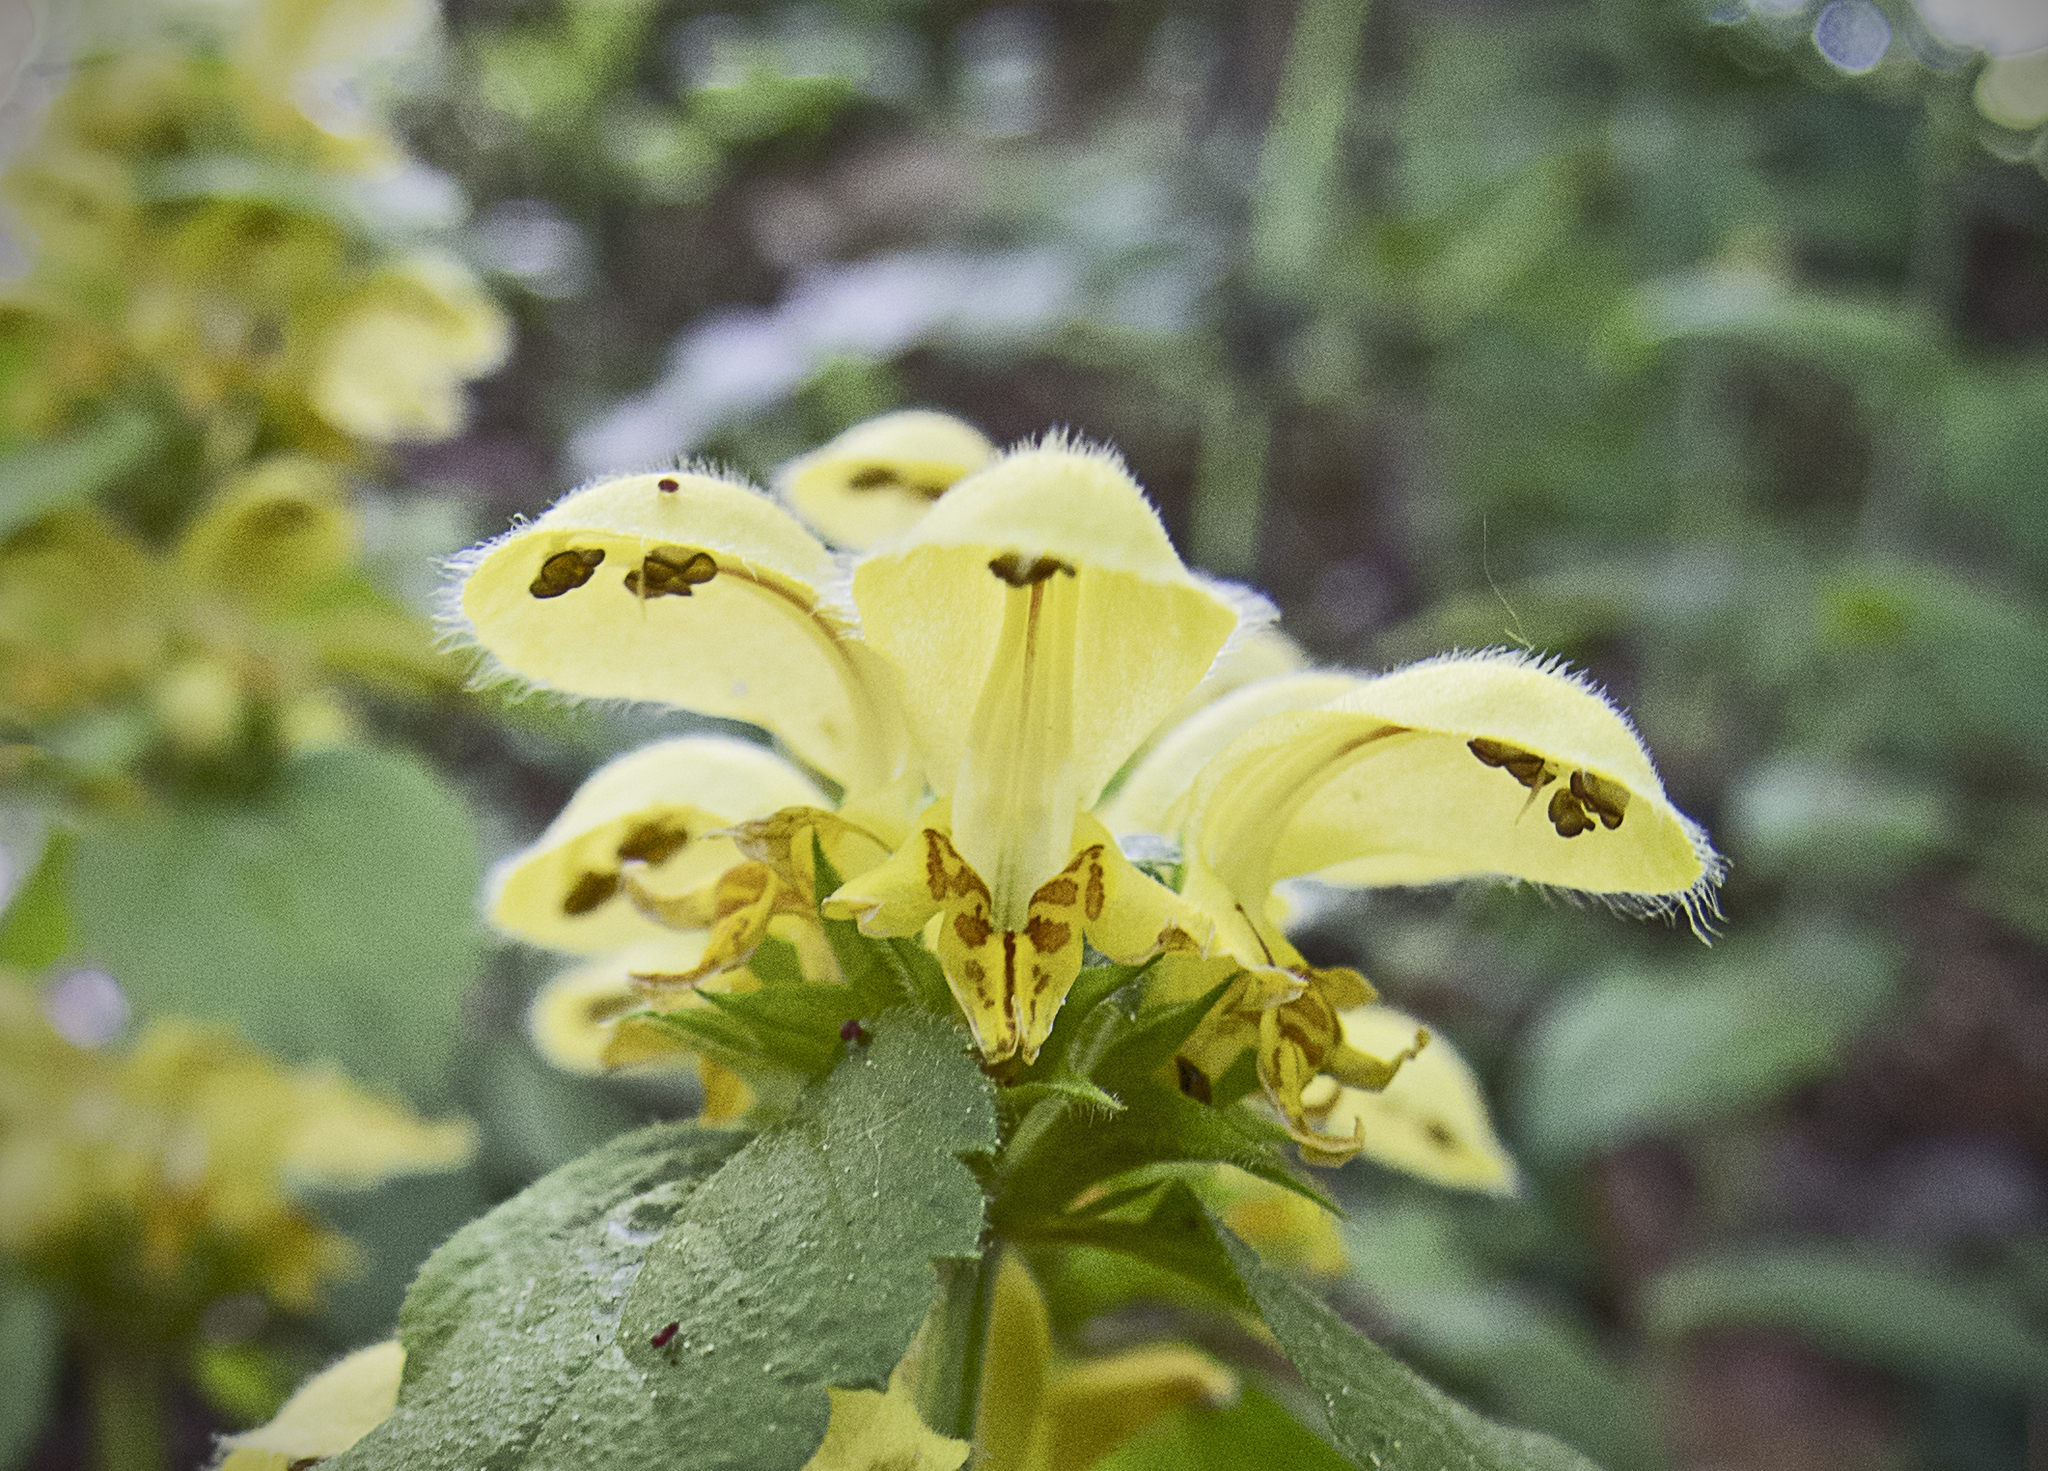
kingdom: Plantae
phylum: Tracheophyta
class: Magnoliopsida
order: Lamiales
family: Lamiaceae
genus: Lamium
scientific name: Lamium galeobdolon
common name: Yellow archangel
